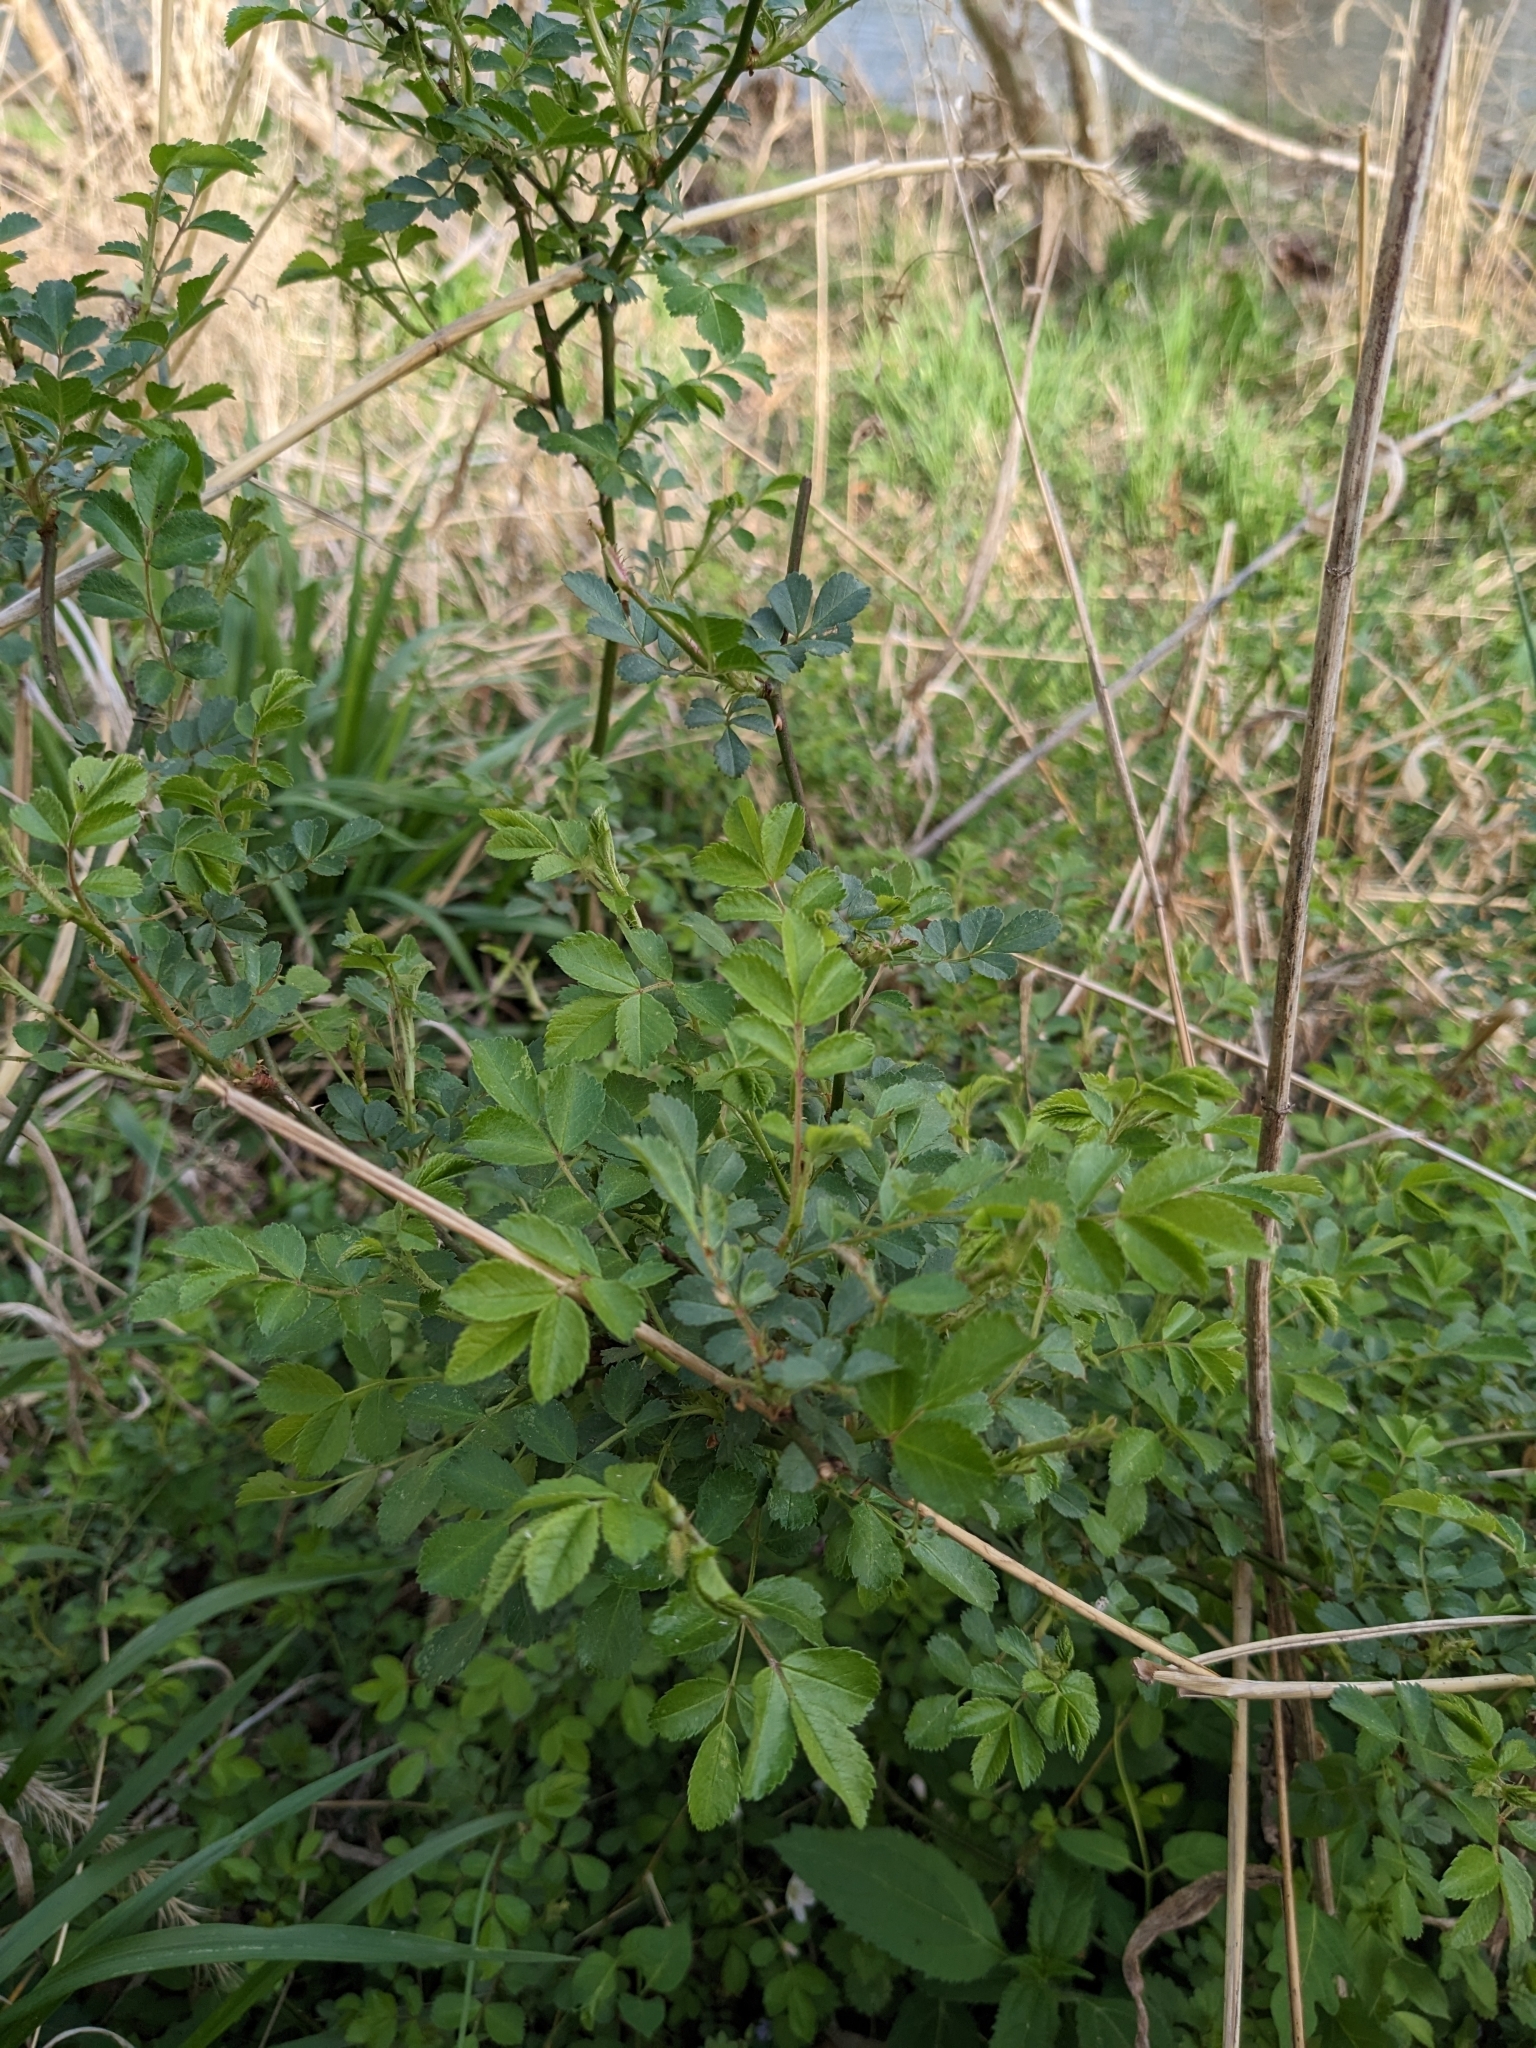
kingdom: Plantae
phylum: Tracheophyta
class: Magnoliopsida
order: Rosales
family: Rosaceae
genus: Rosa
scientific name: Rosa multiflora
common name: Multiflora rose
